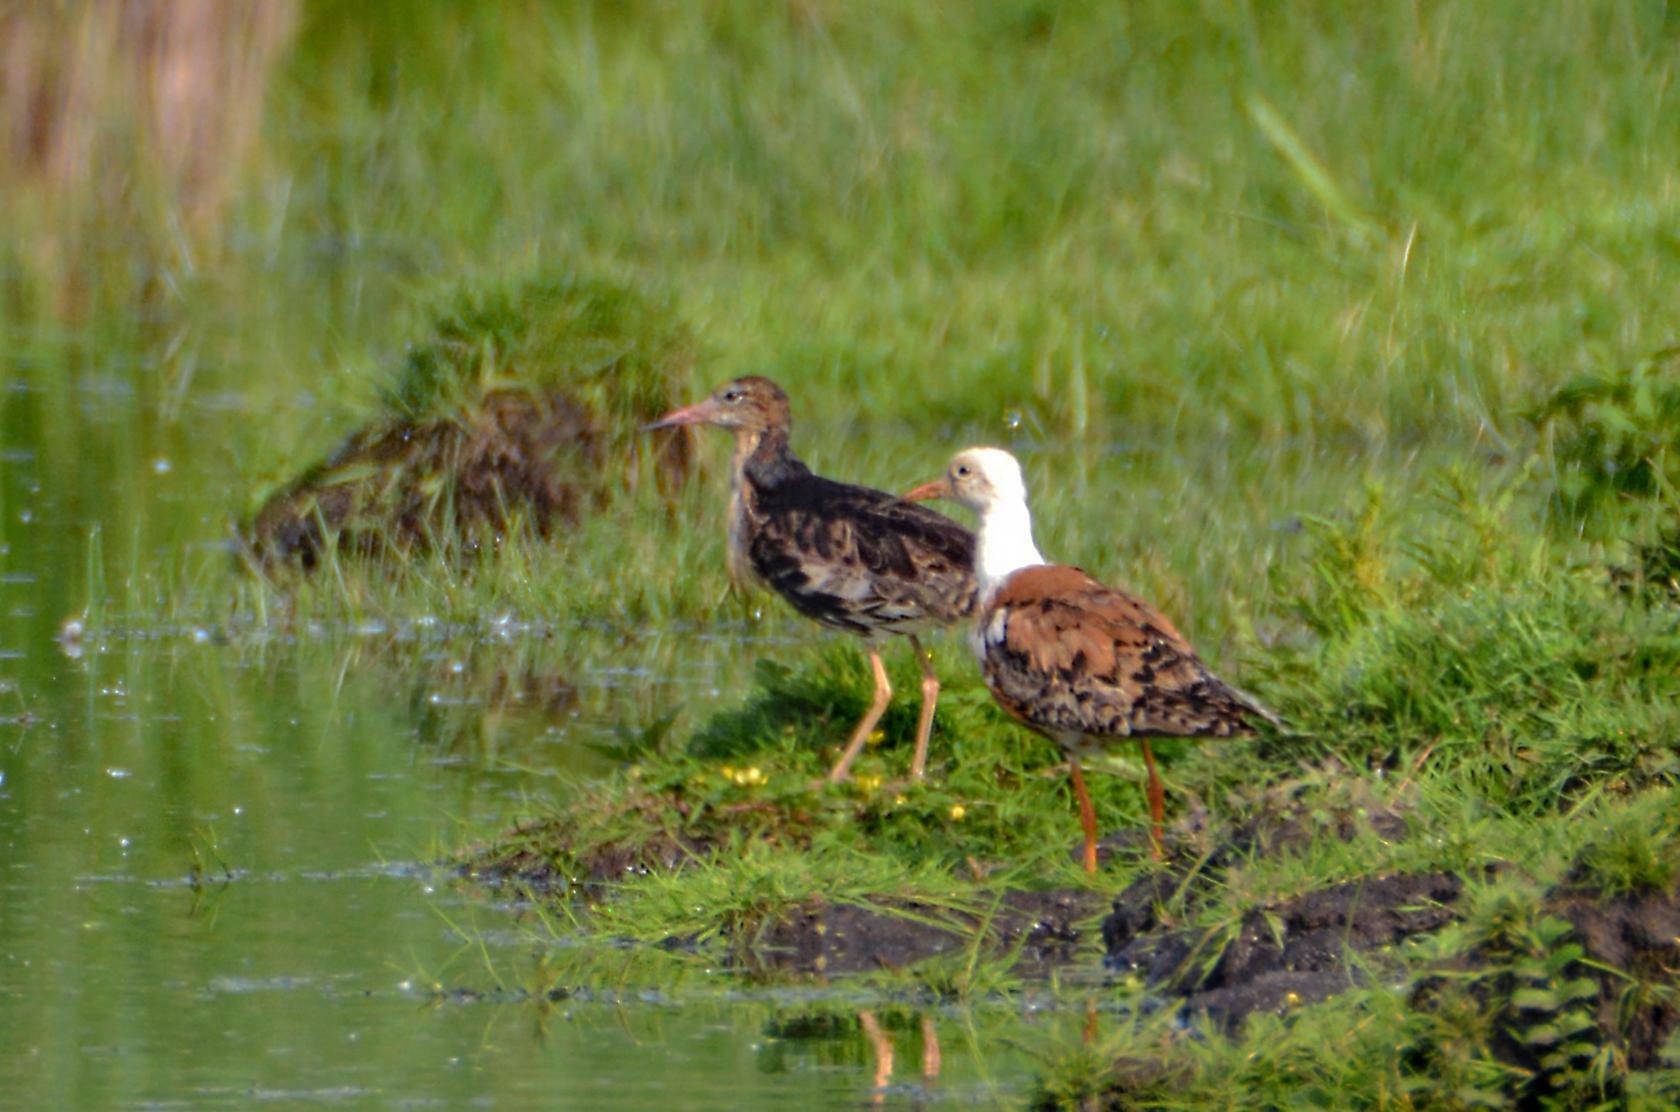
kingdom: Animalia
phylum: Chordata
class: Aves
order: Charadriiformes
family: Scolopacidae
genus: Calidris
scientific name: Calidris pugnax
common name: Ruff
